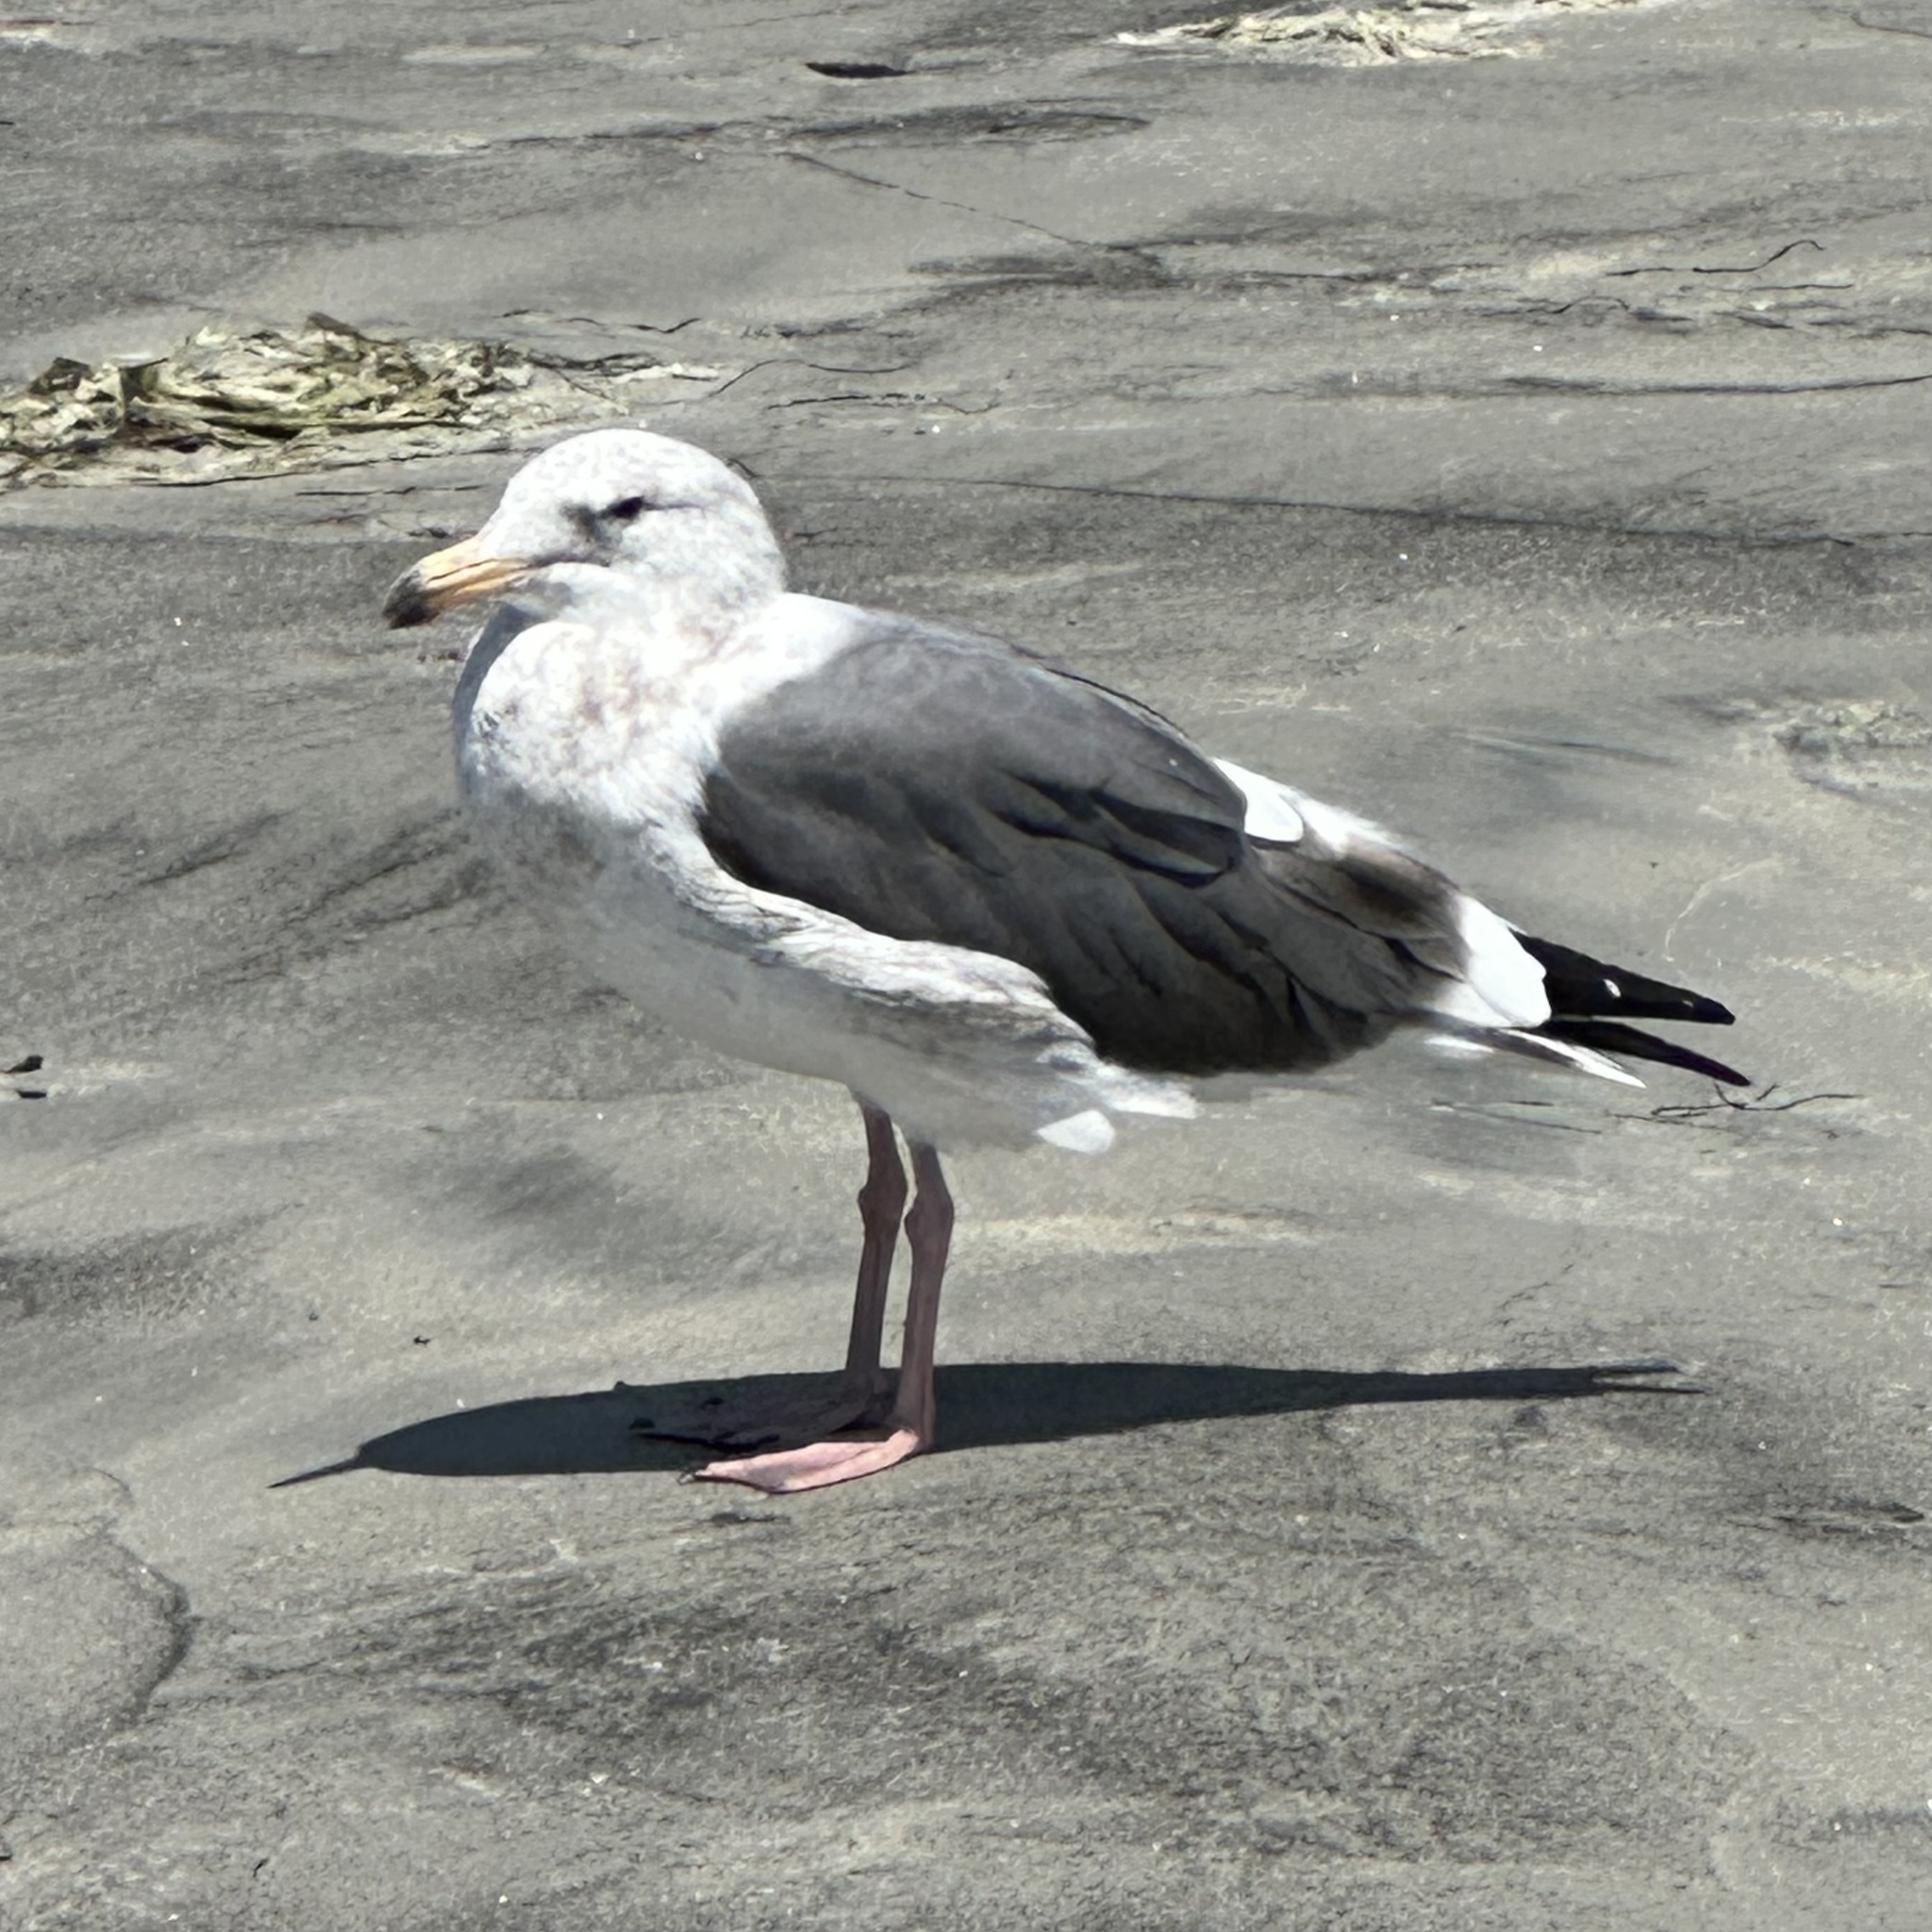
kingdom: Animalia
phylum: Chordata
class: Aves
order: Charadriiformes
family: Laridae
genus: Larus
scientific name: Larus occidentalis
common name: Western gull
